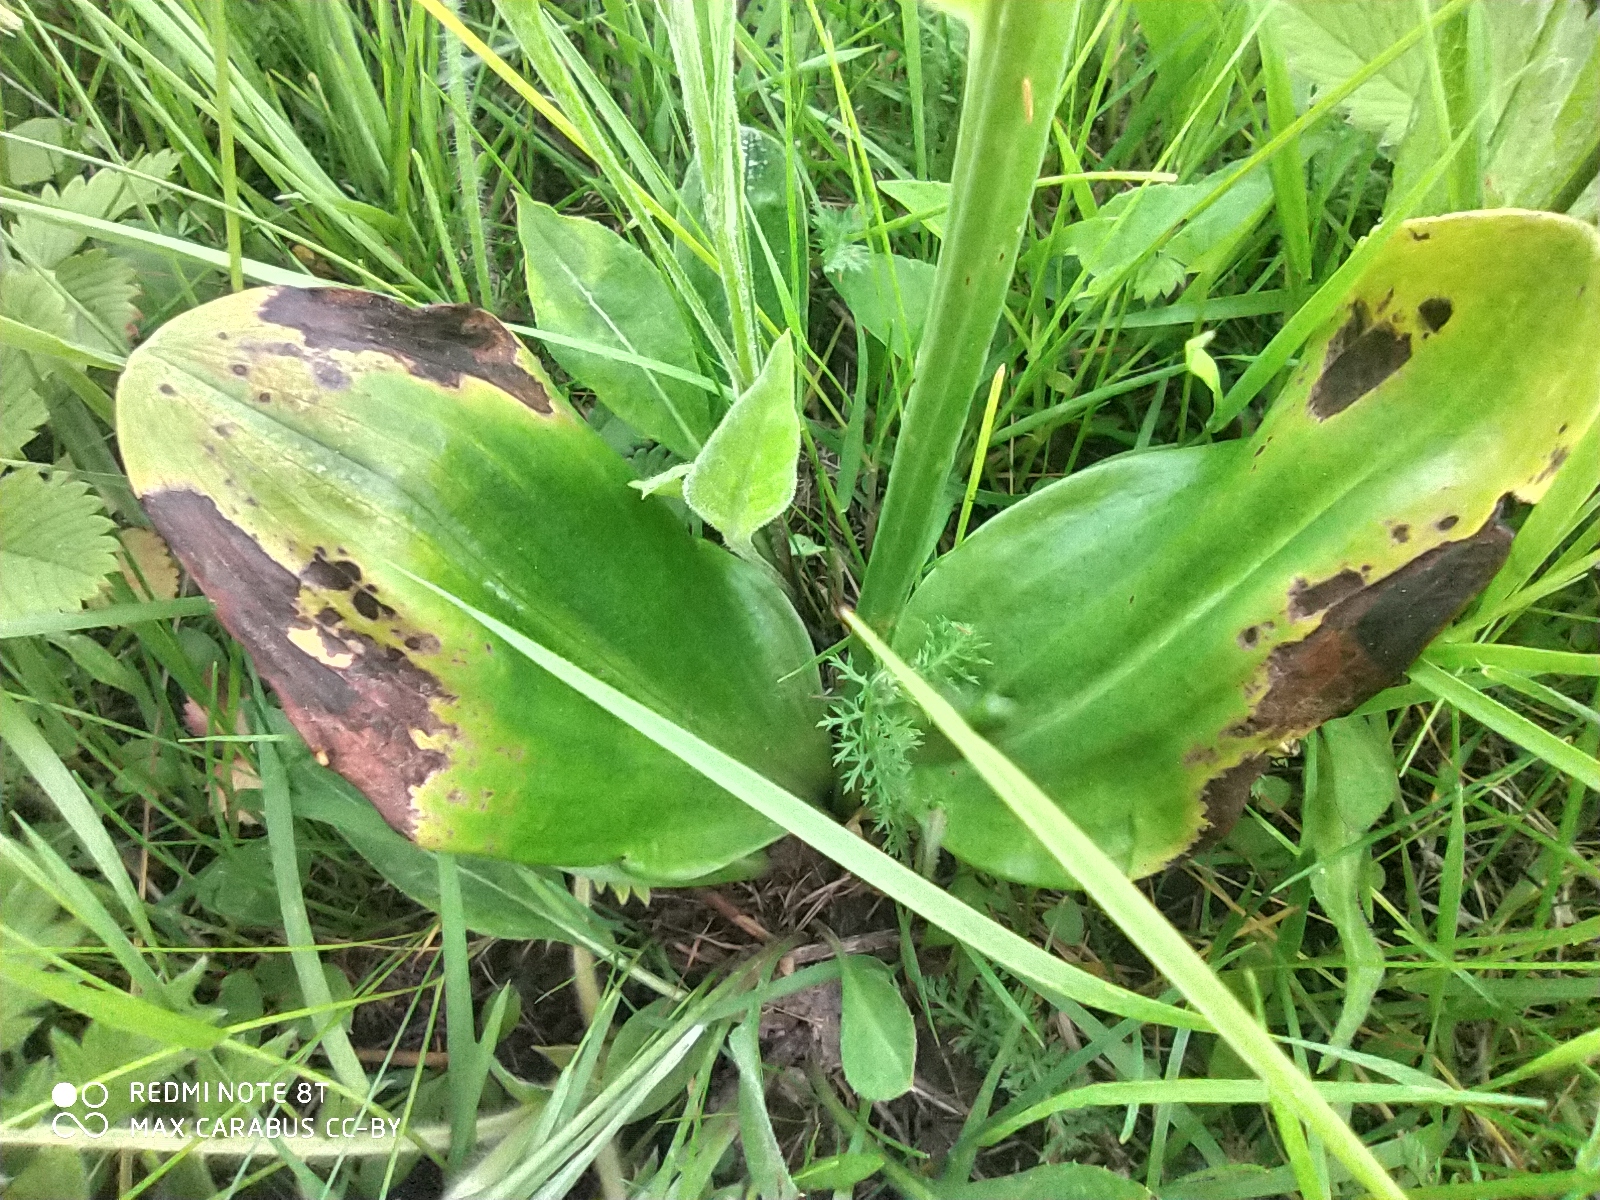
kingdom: Plantae
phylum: Tracheophyta
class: Liliopsida
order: Asparagales
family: Orchidaceae
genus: Platanthera
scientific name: Platanthera bifolia
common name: Lesser butterfly-orchid
